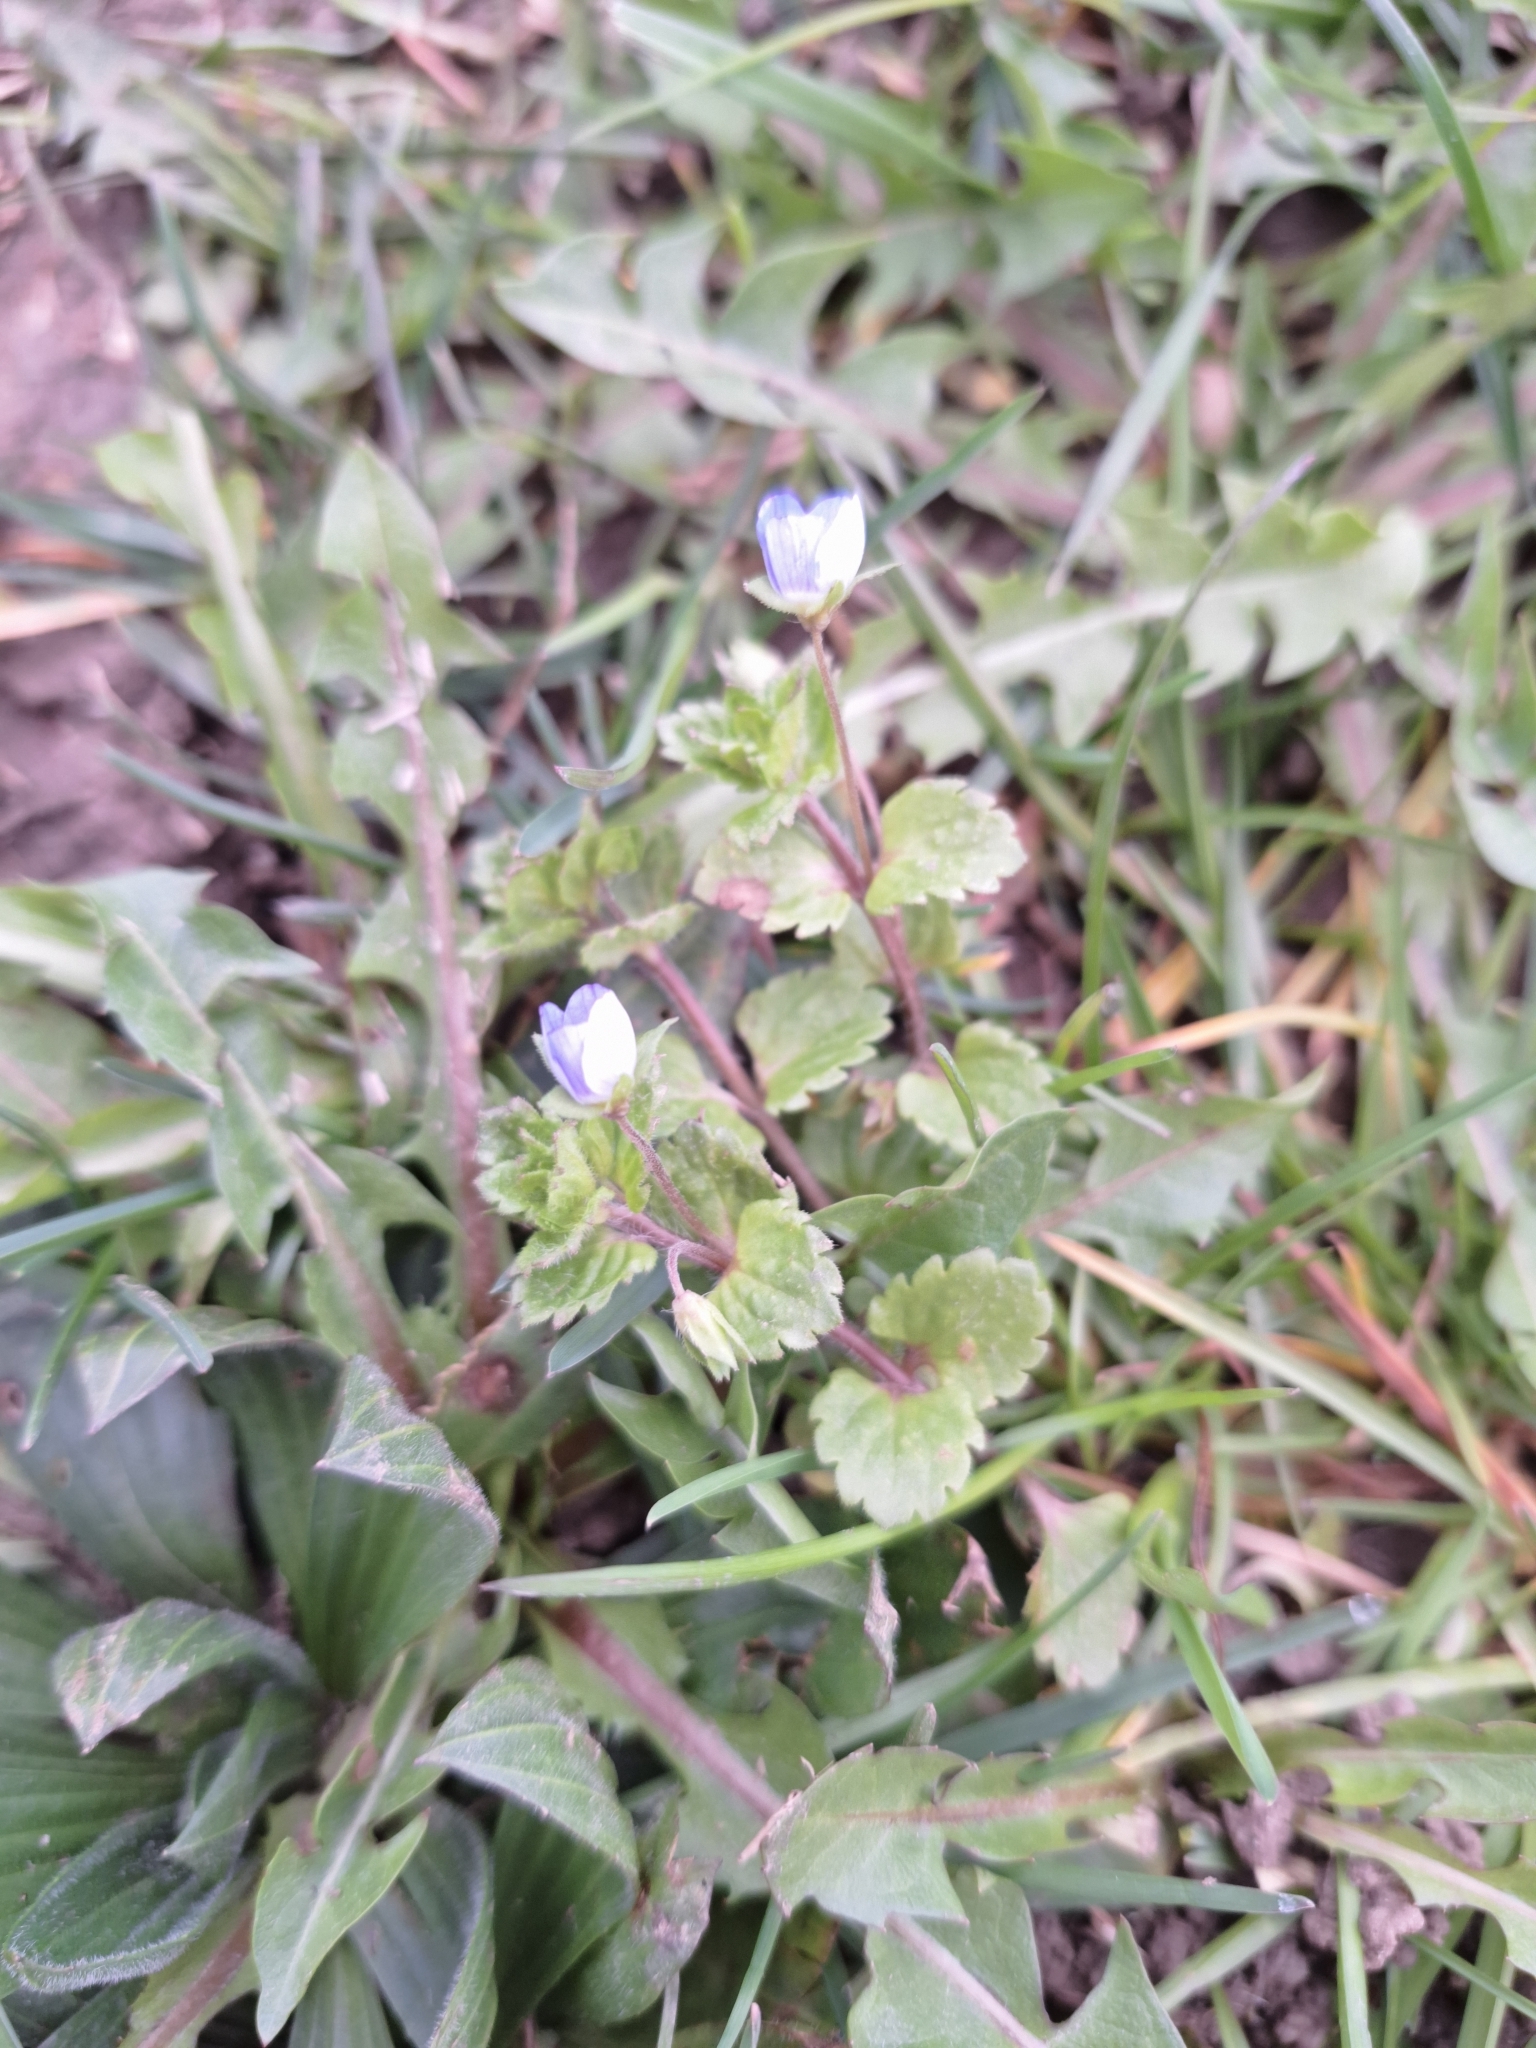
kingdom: Plantae
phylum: Tracheophyta
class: Magnoliopsida
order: Lamiales
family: Plantaginaceae
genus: Veronica
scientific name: Veronica persica
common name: Common field-speedwell
